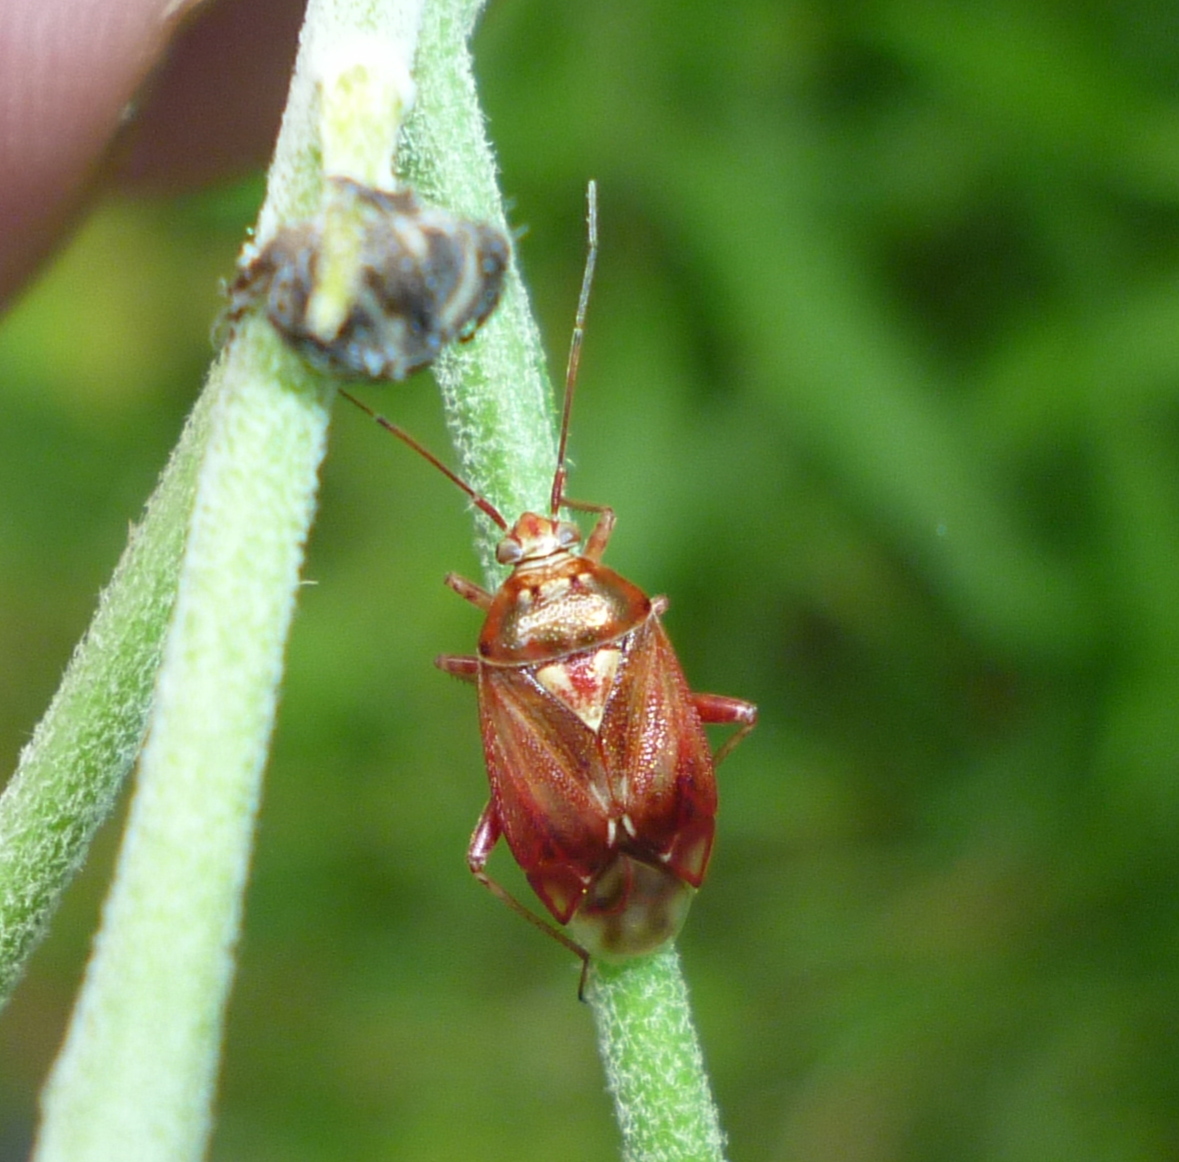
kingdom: Animalia
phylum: Arthropoda
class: Insecta
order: Hemiptera
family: Miridae
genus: Lygus
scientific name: Lygus rubroclarus
